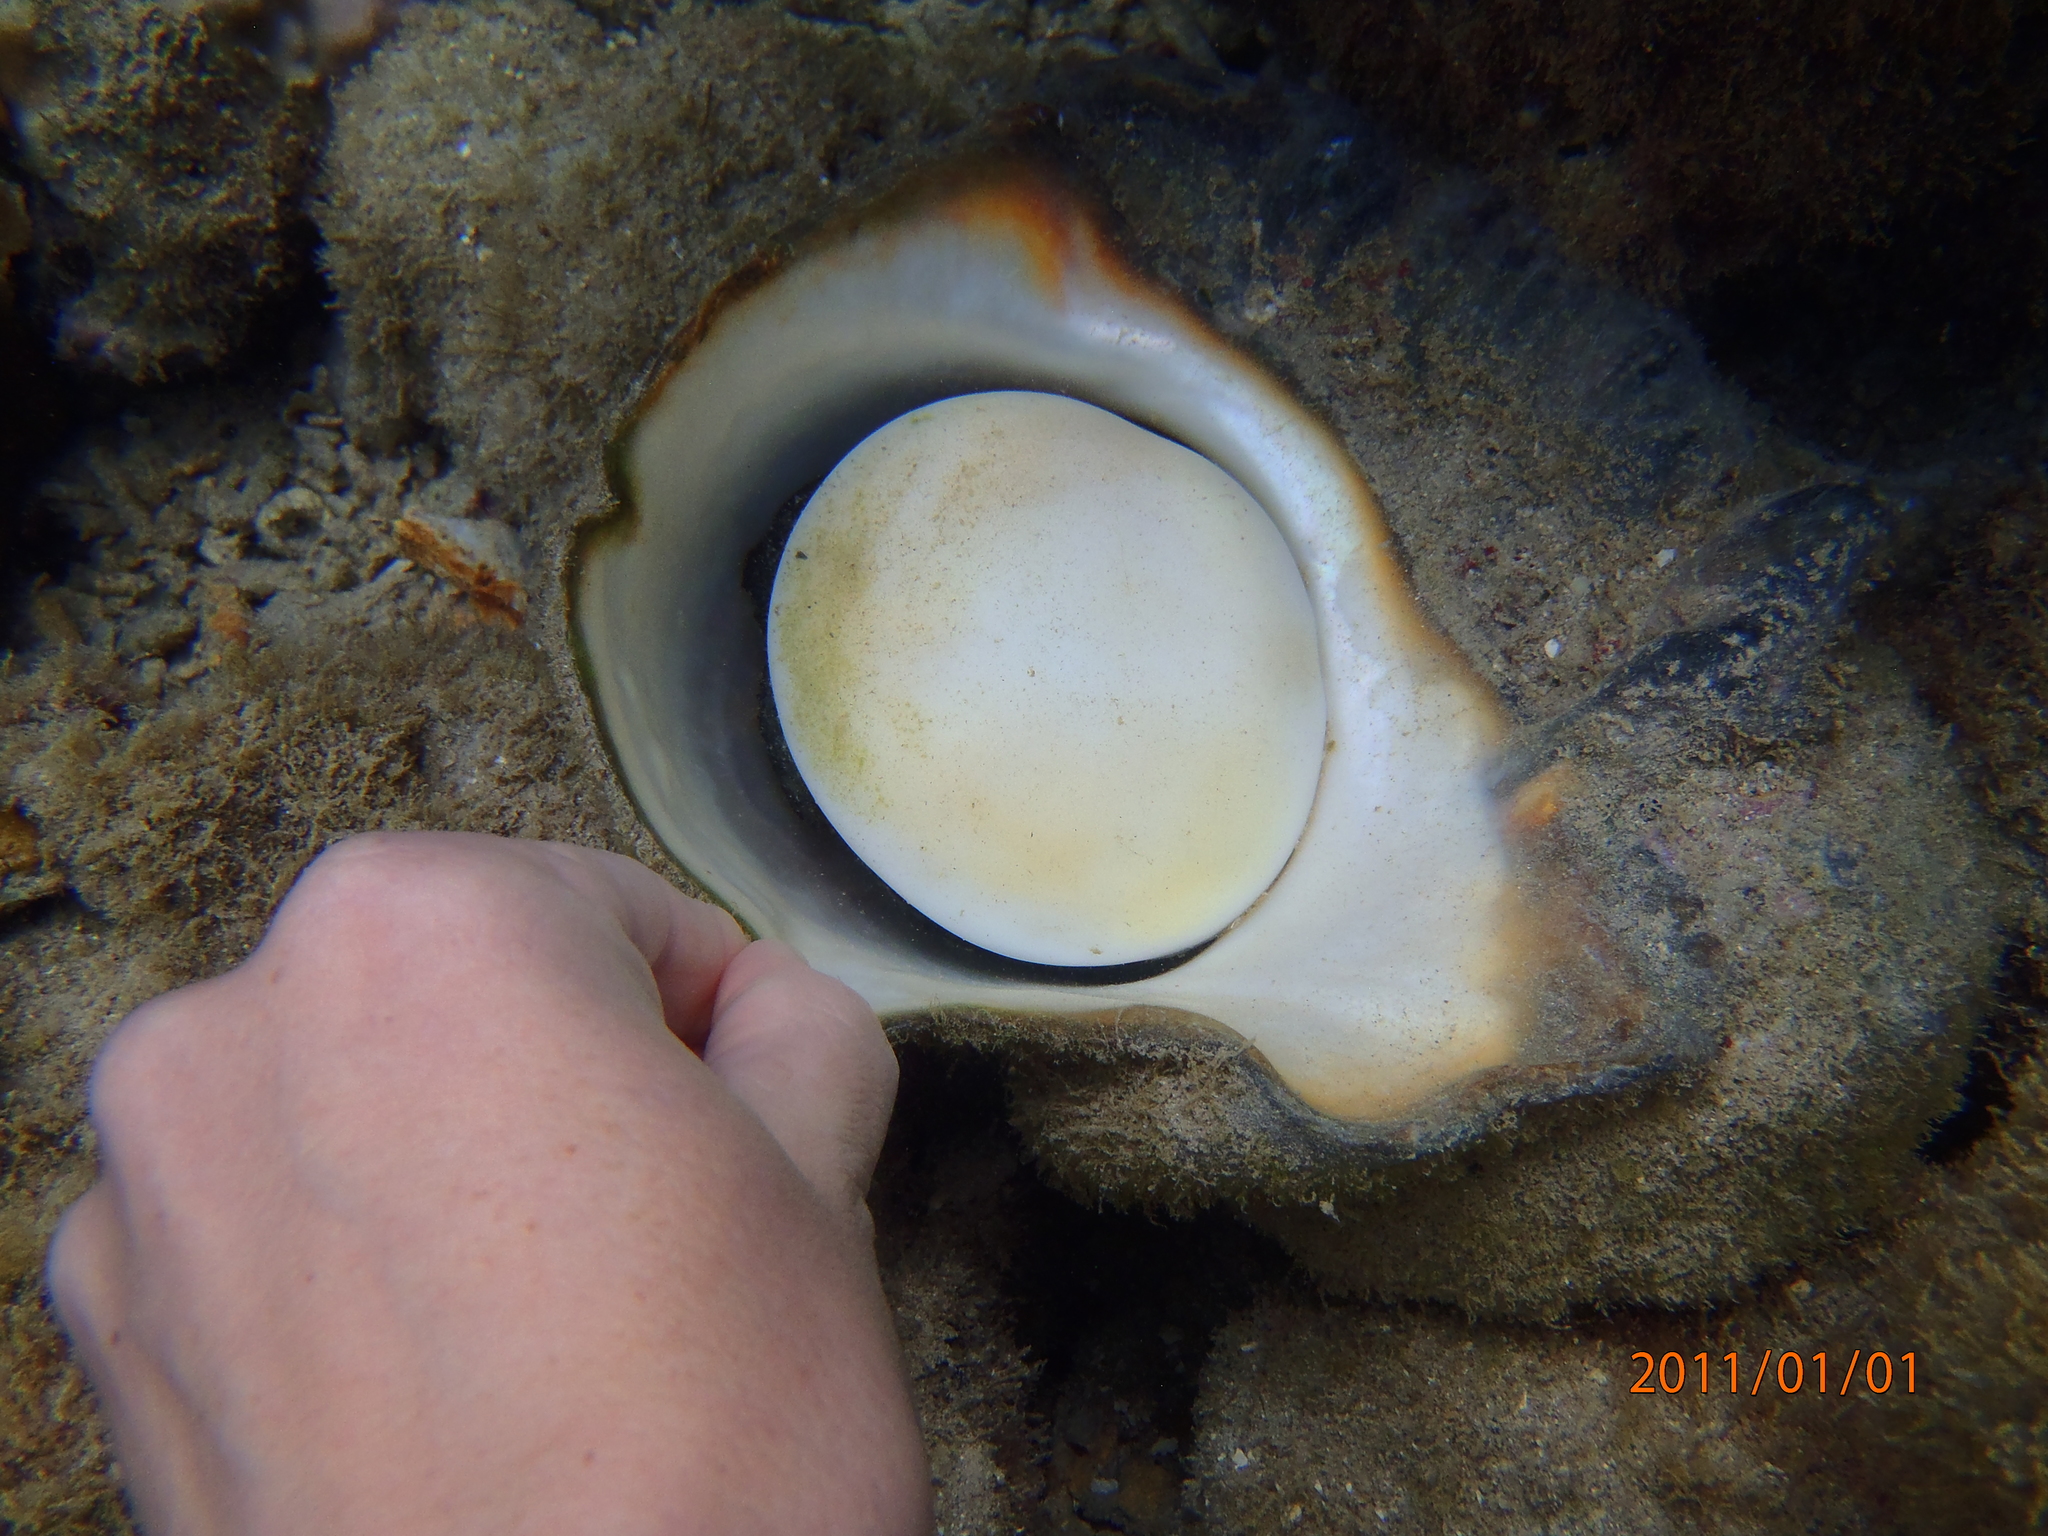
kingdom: Animalia
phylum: Mollusca
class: Gastropoda
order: Trochida
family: Turbinidae
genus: Turbo
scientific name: Turbo marmoratus
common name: Giant green turban
